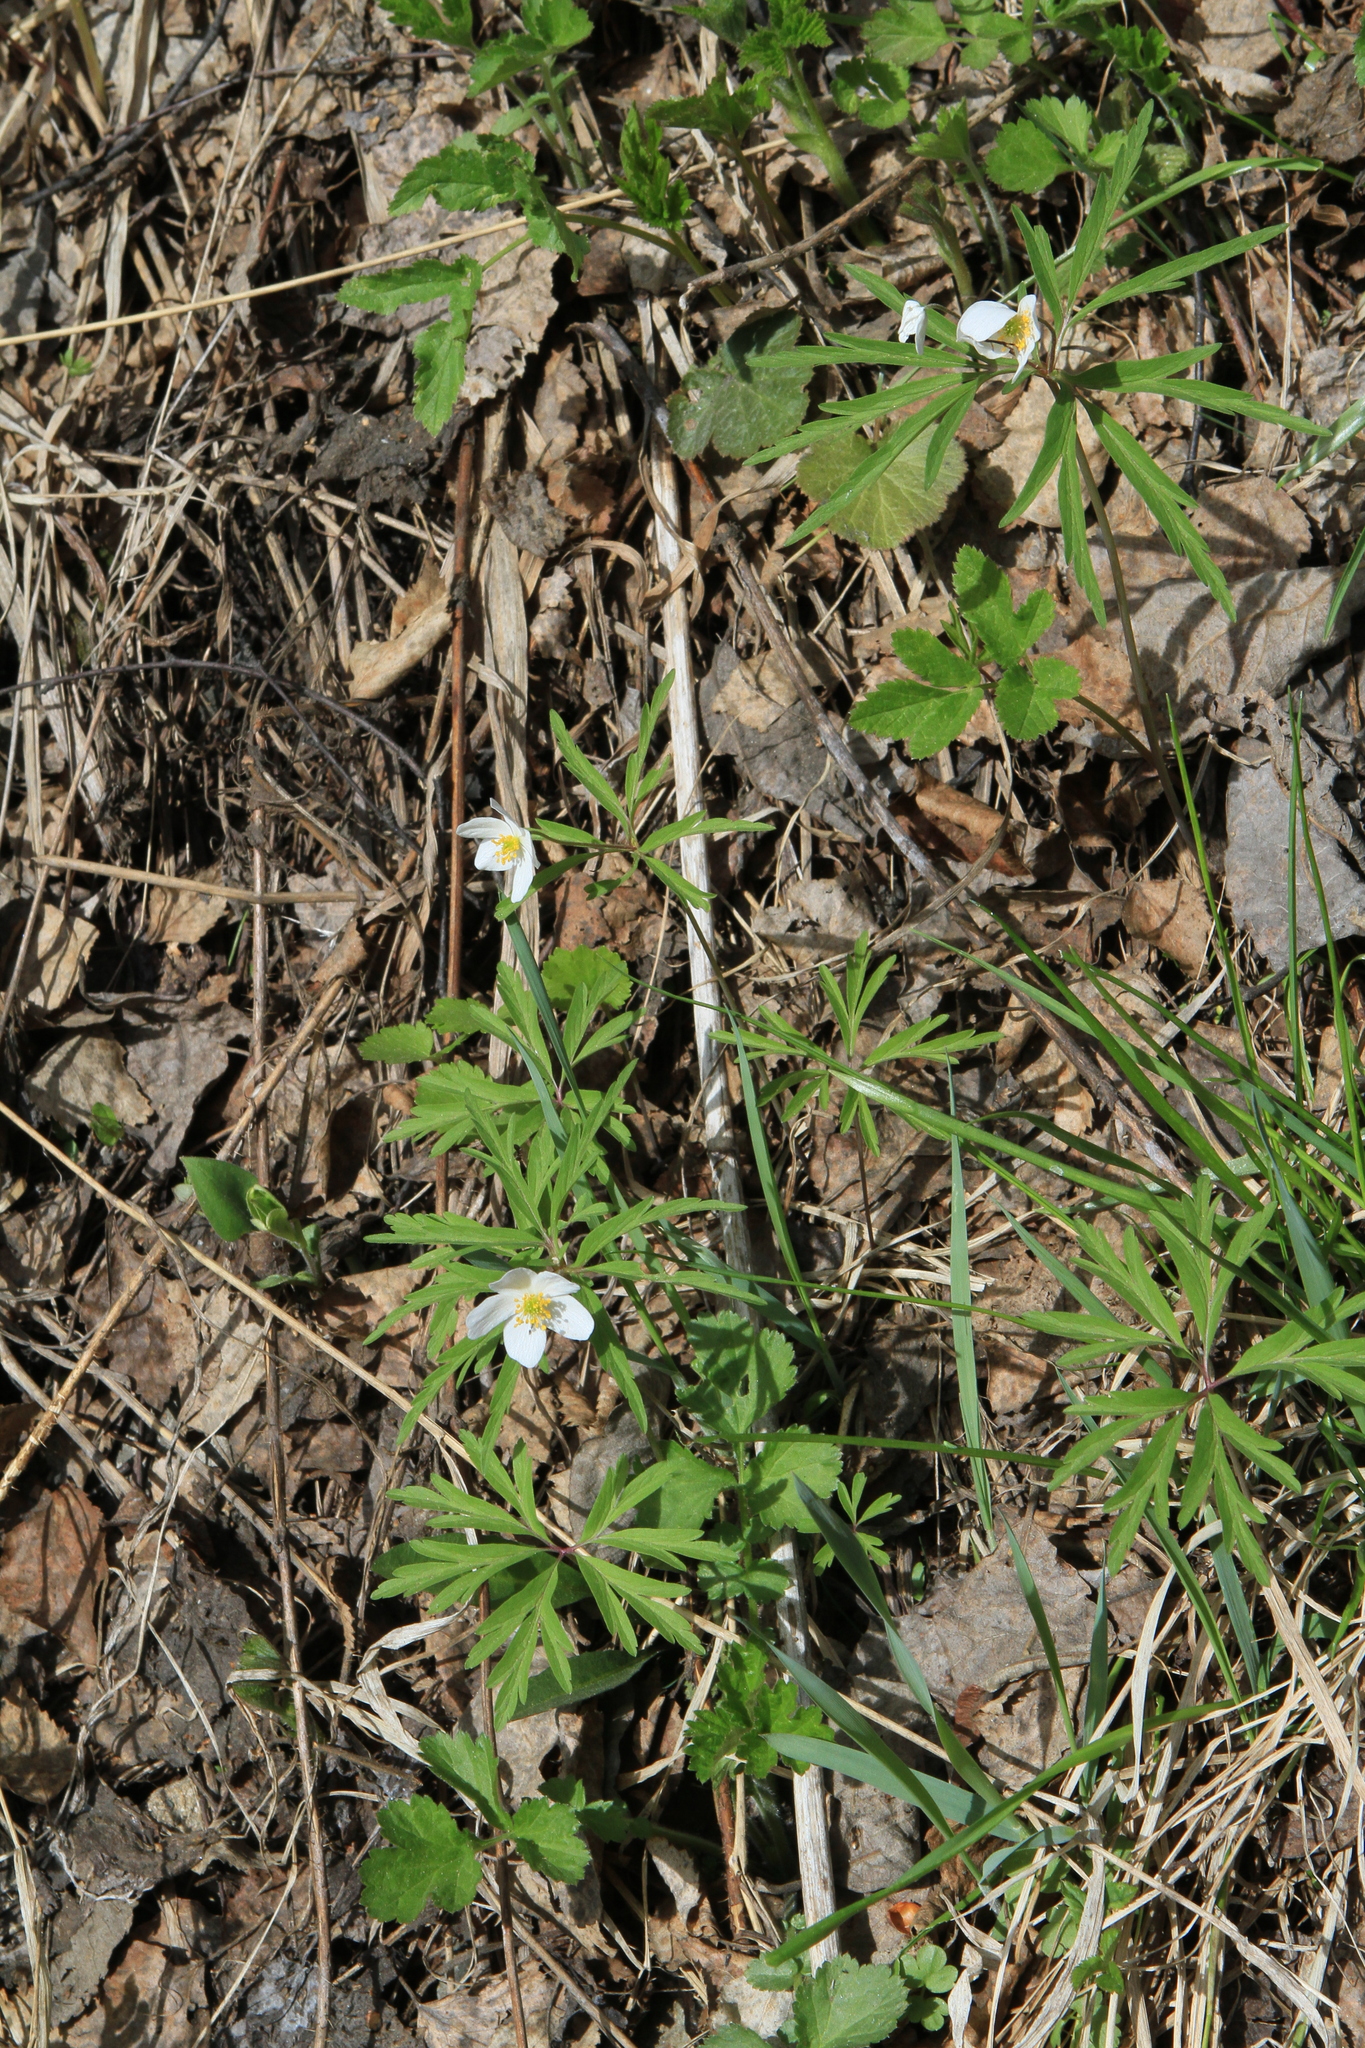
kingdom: Plantae
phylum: Tracheophyta
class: Magnoliopsida
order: Ranunculales
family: Ranunculaceae
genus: Anemone
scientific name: Anemone caerulea
